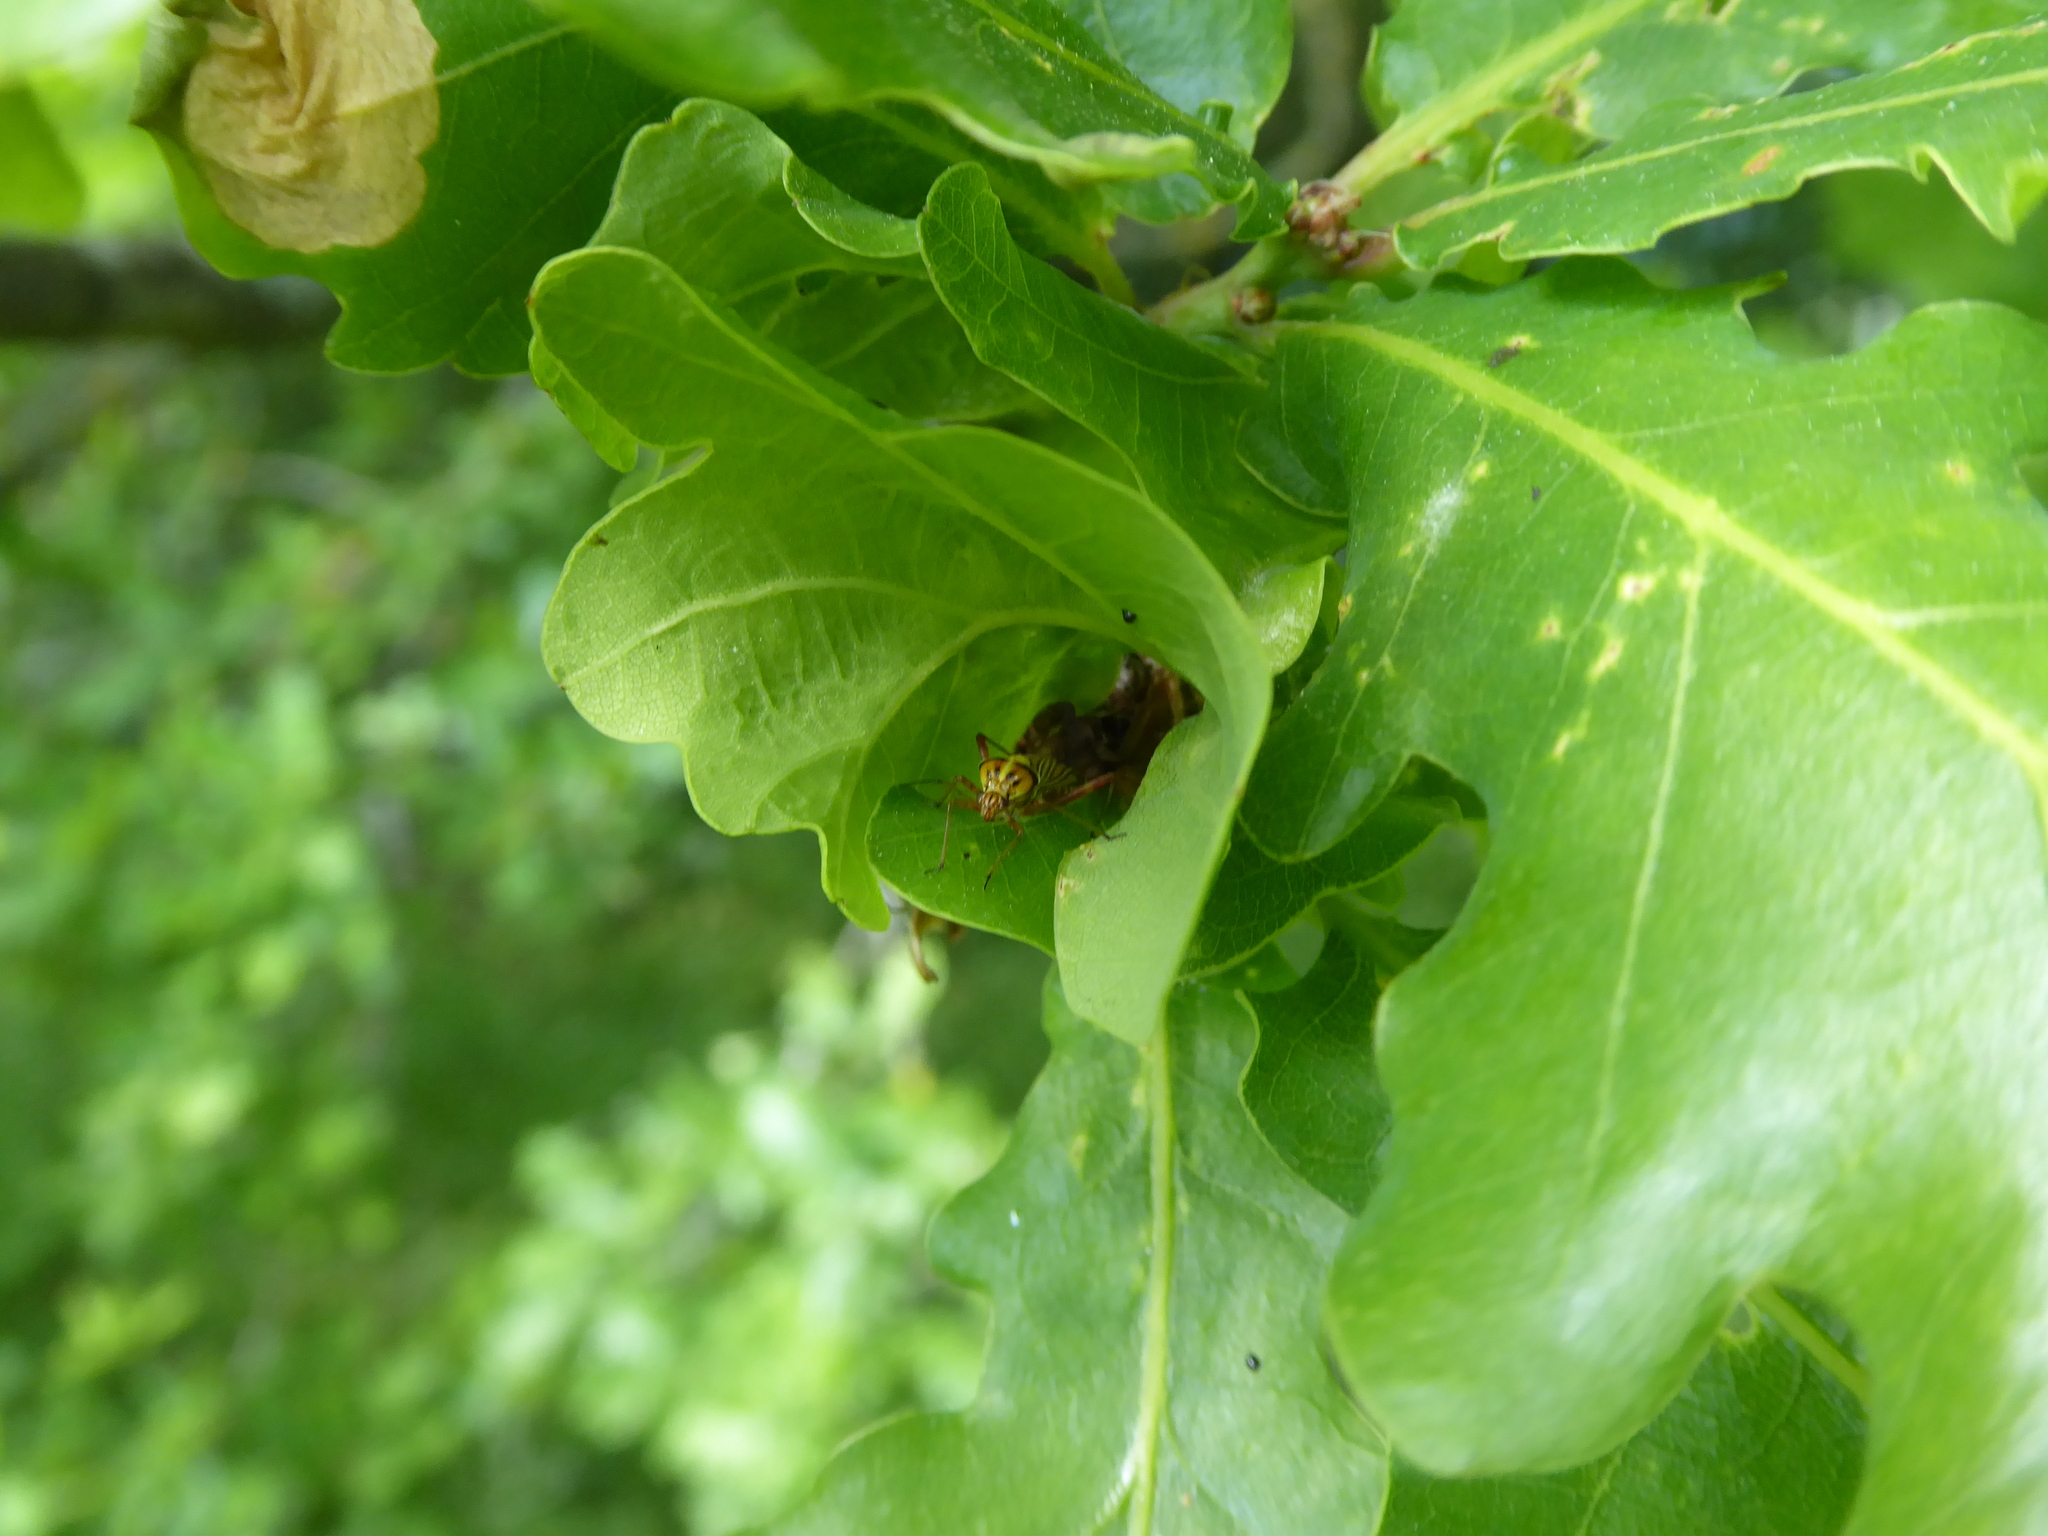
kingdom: Animalia
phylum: Arthropoda
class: Insecta
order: Hemiptera
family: Miridae
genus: Rhabdomiris
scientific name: Rhabdomiris striatellus
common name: Plant bug
